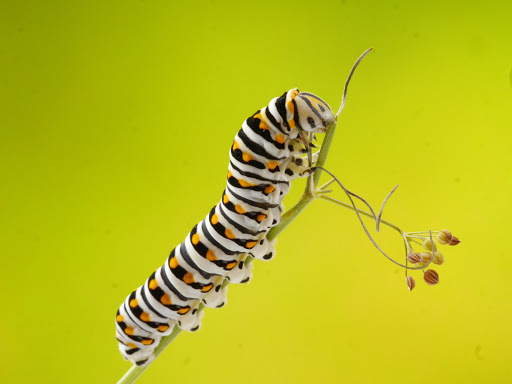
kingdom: Animalia
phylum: Arthropoda
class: Insecta
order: Lepidoptera
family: Papilionidae
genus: Papilio
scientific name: Papilio polyxenes
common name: Black swallowtail
